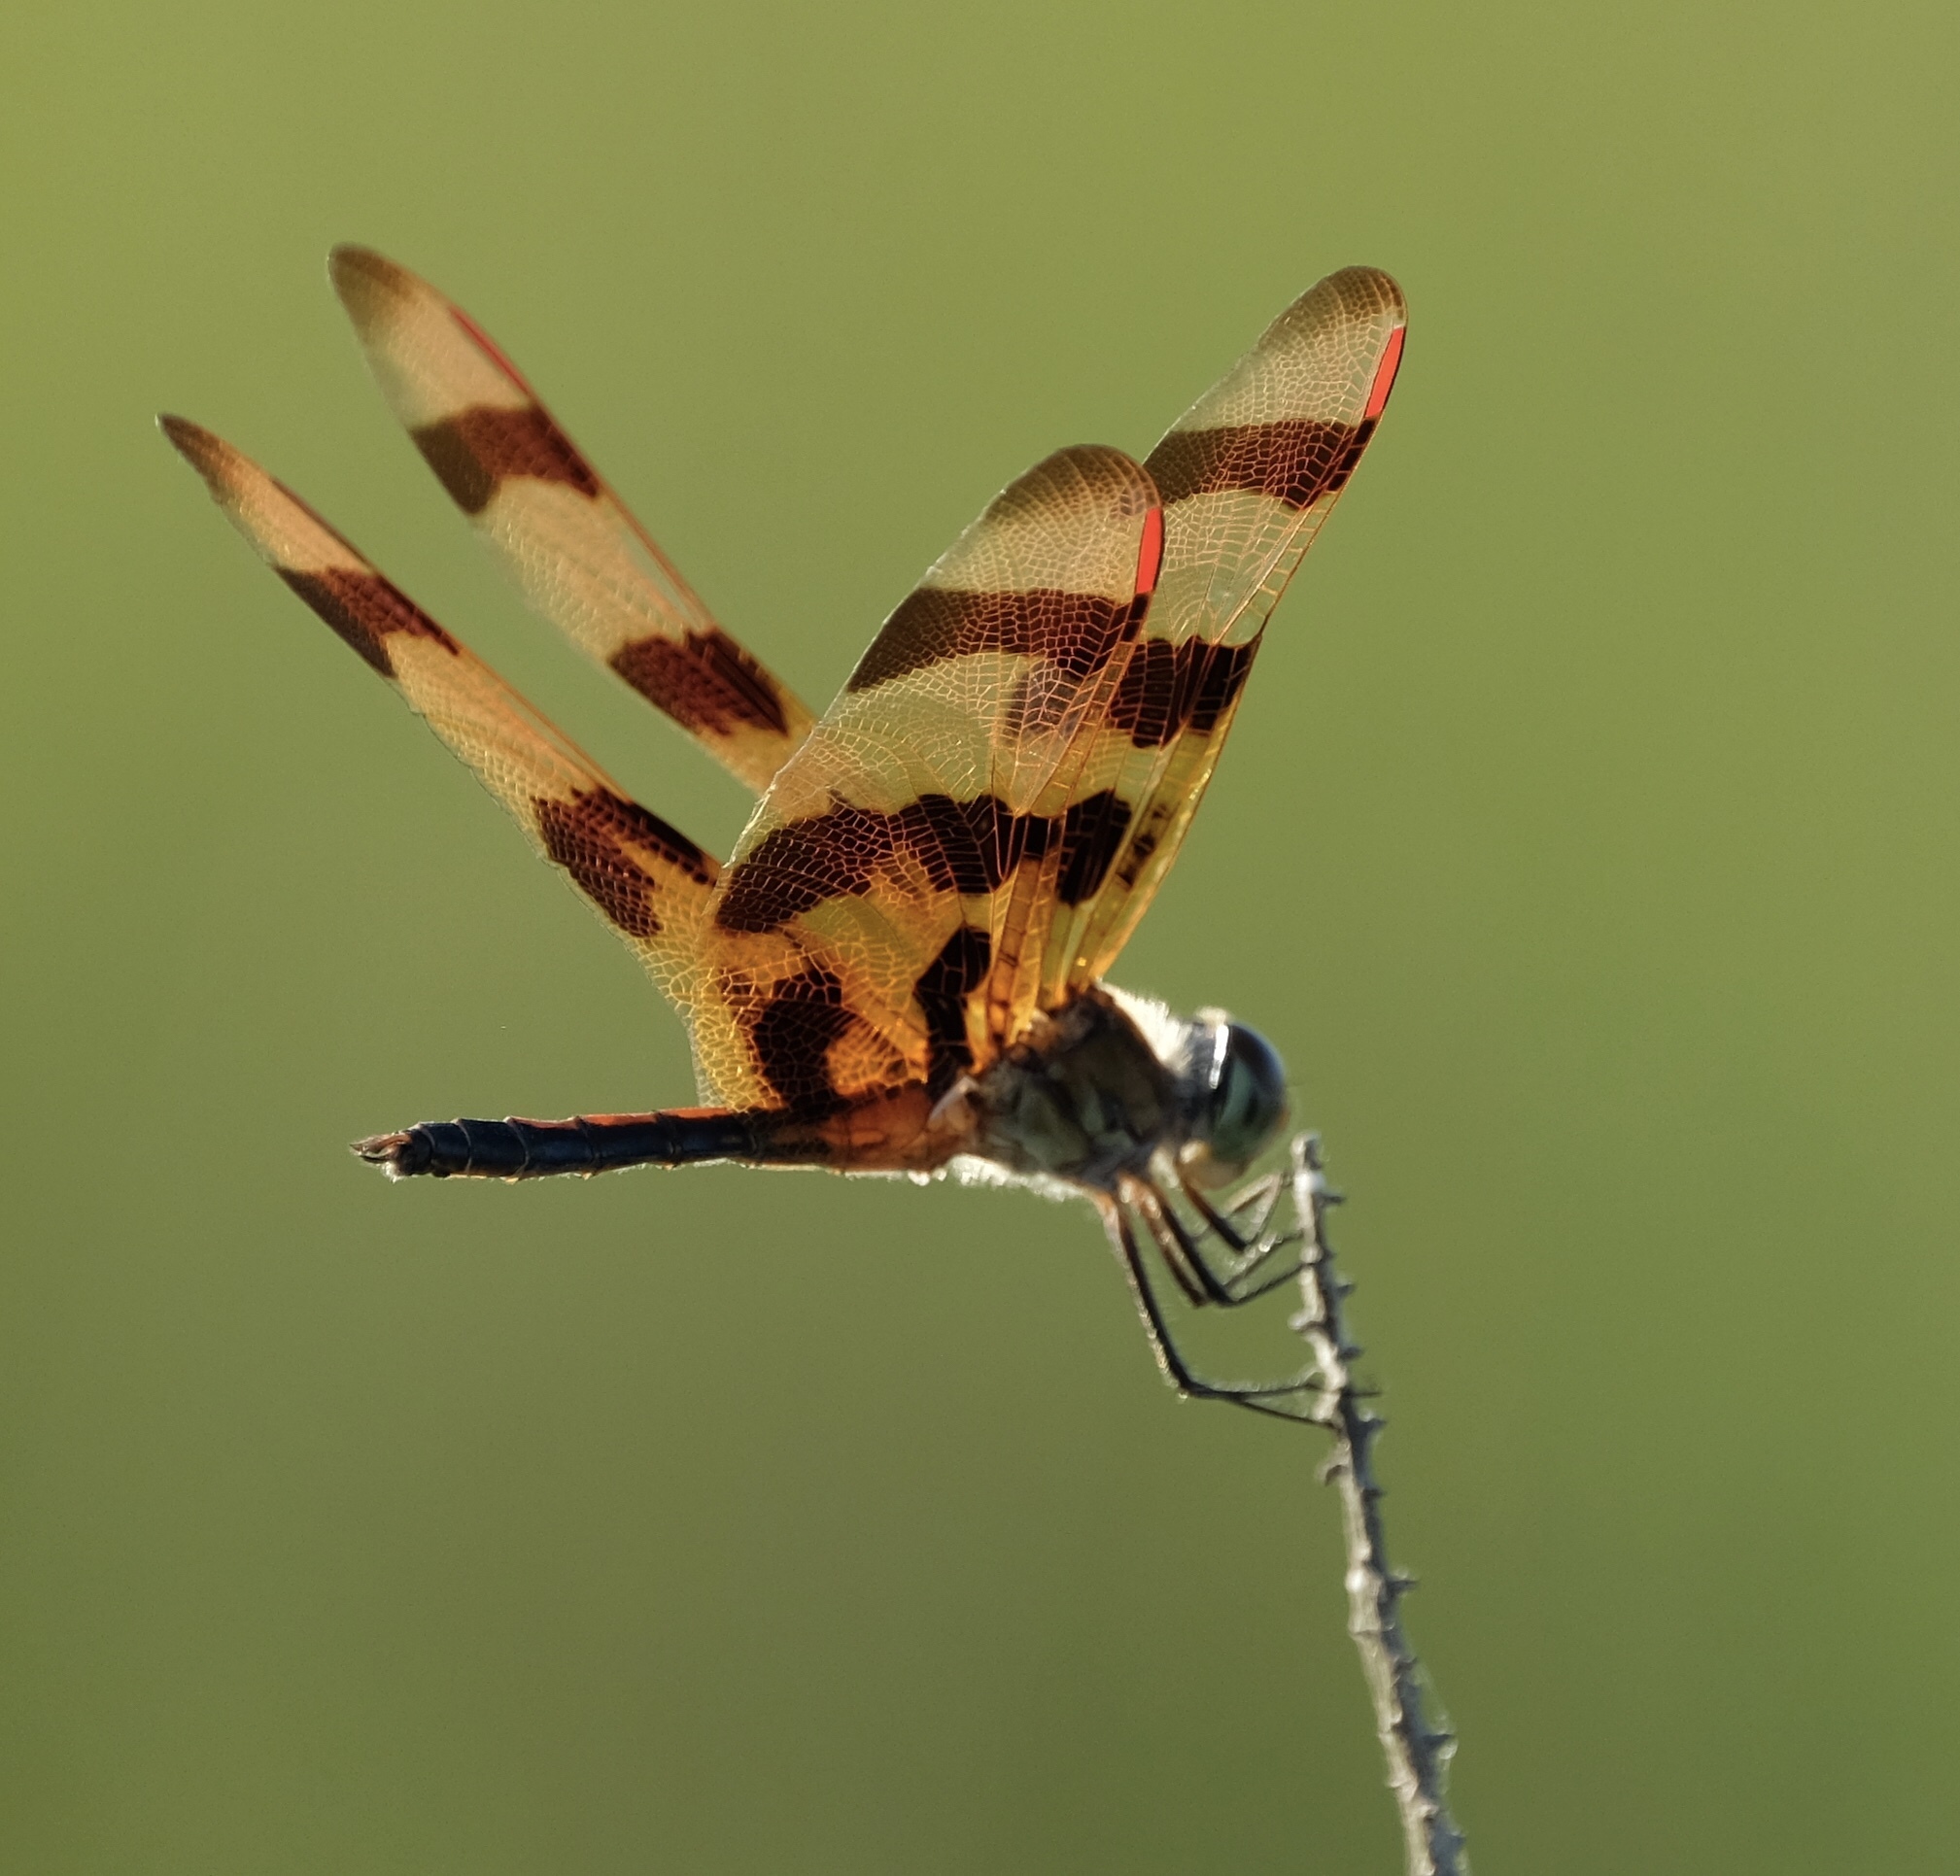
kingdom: Animalia
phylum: Arthropoda
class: Insecta
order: Odonata
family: Libellulidae
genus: Celithemis
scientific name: Celithemis eponina
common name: Halloween pennant
